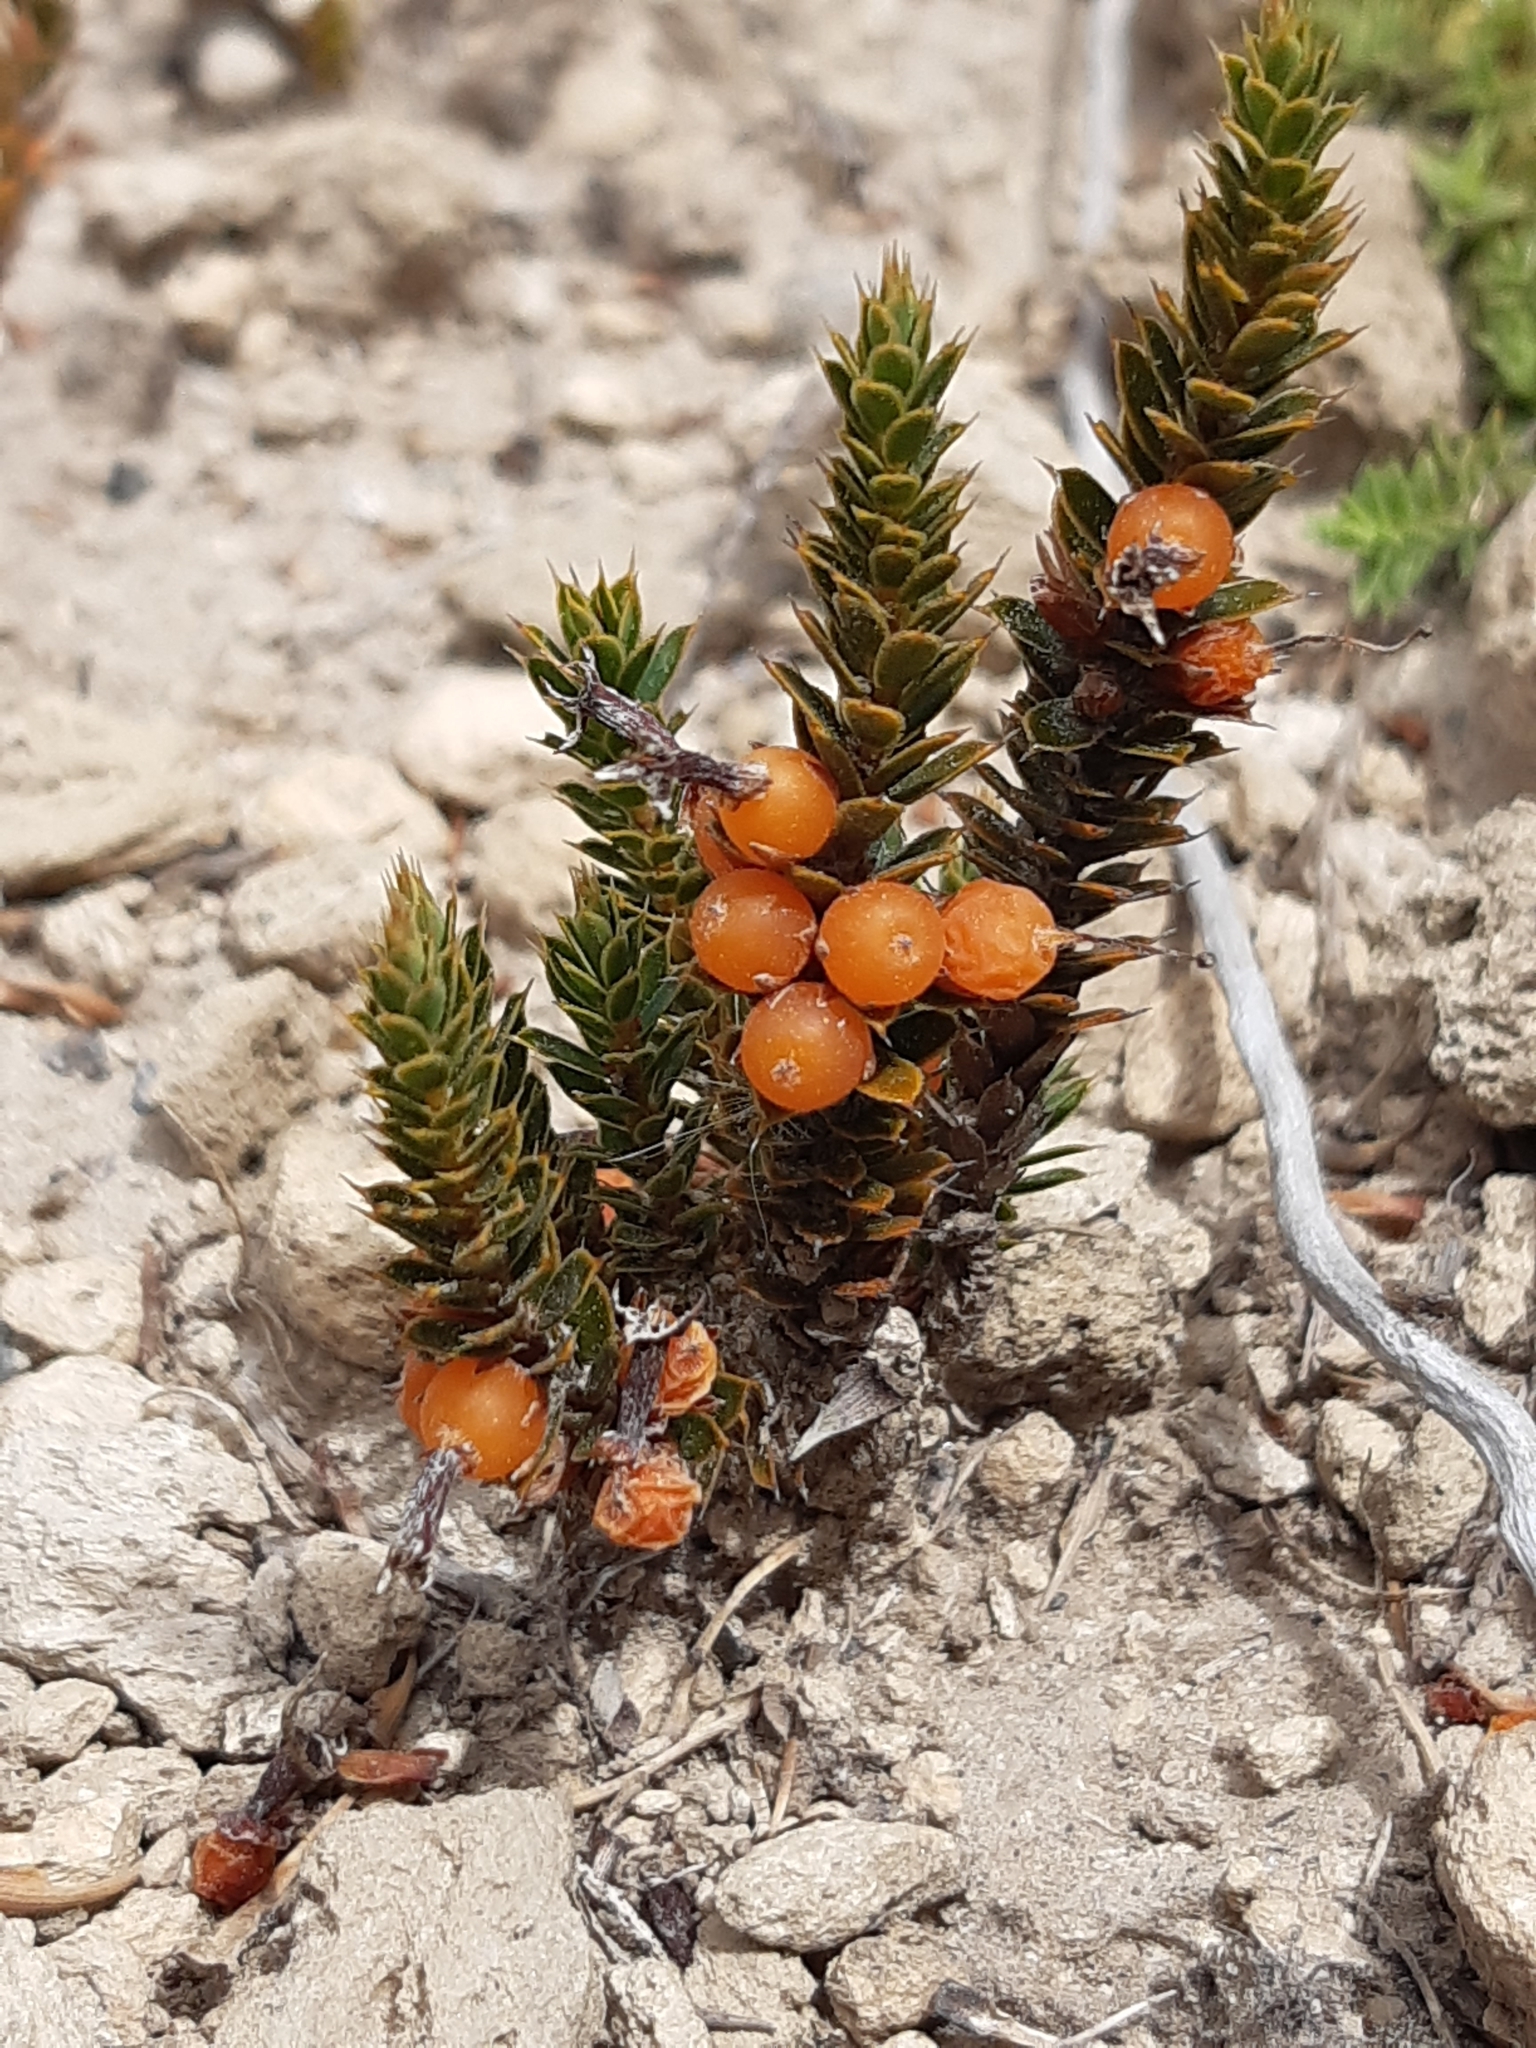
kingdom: Plantae
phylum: Tracheophyta
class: Magnoliopsida
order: Ericales
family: Ericaceae
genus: Styphelia
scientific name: Styphelia nesophila
